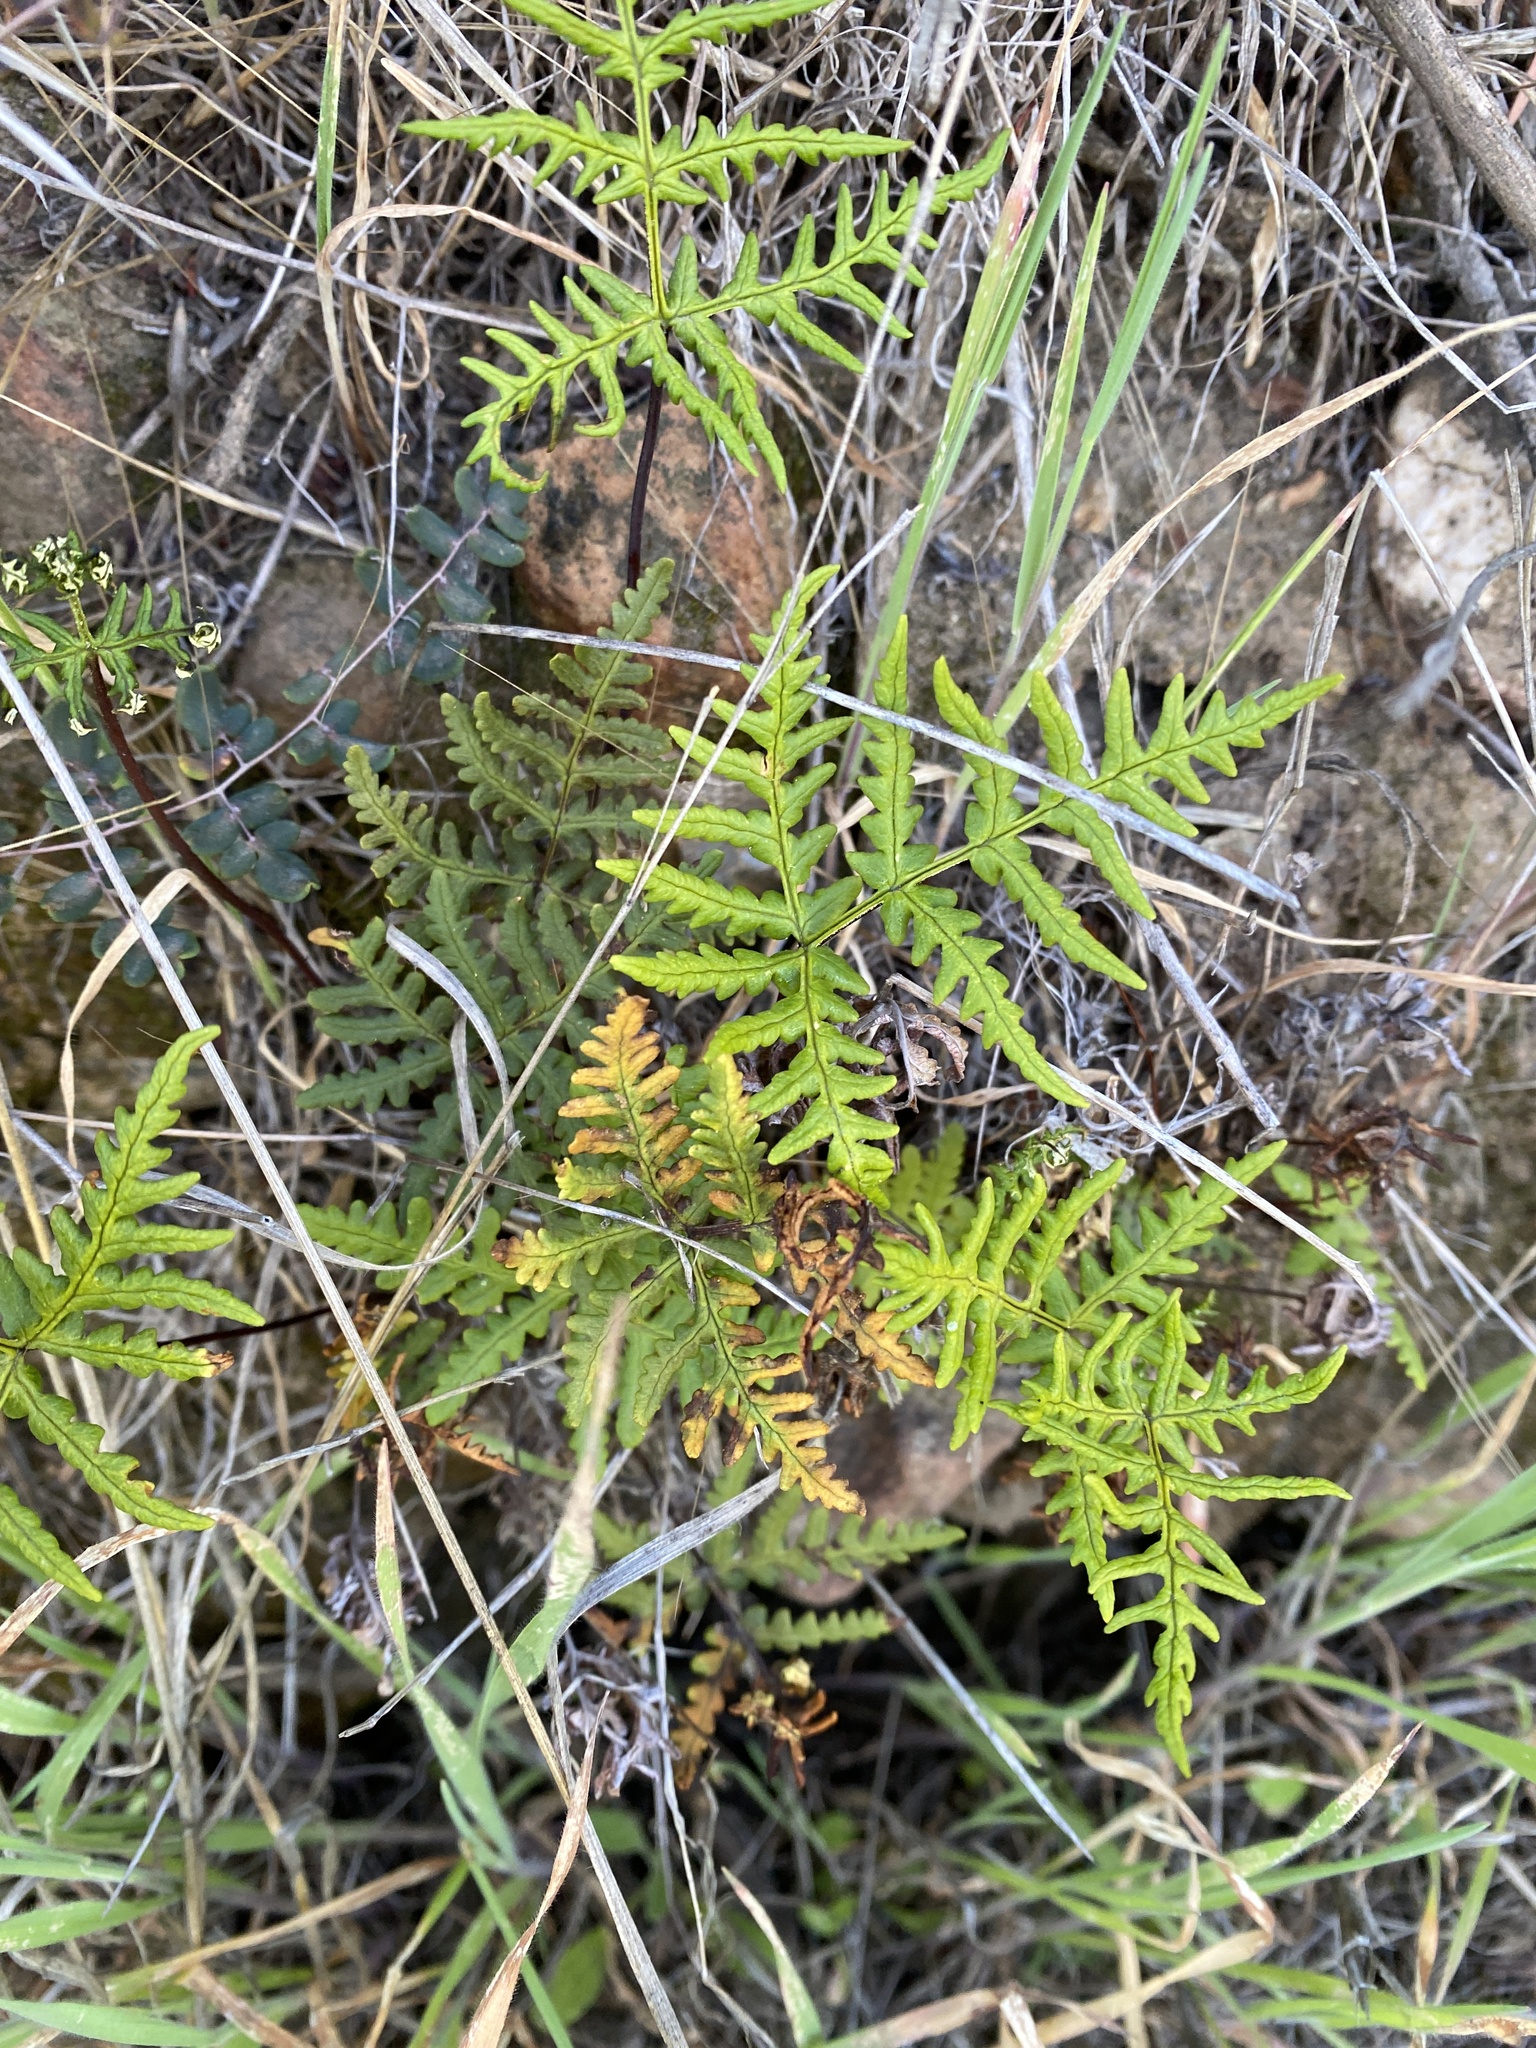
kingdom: Plantae
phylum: Tracheophyta
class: Polypodiopsida
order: Polypodiales
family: Pteridaceae
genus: Pentagramma
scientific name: Pentagramma triangularis
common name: Gold fern
